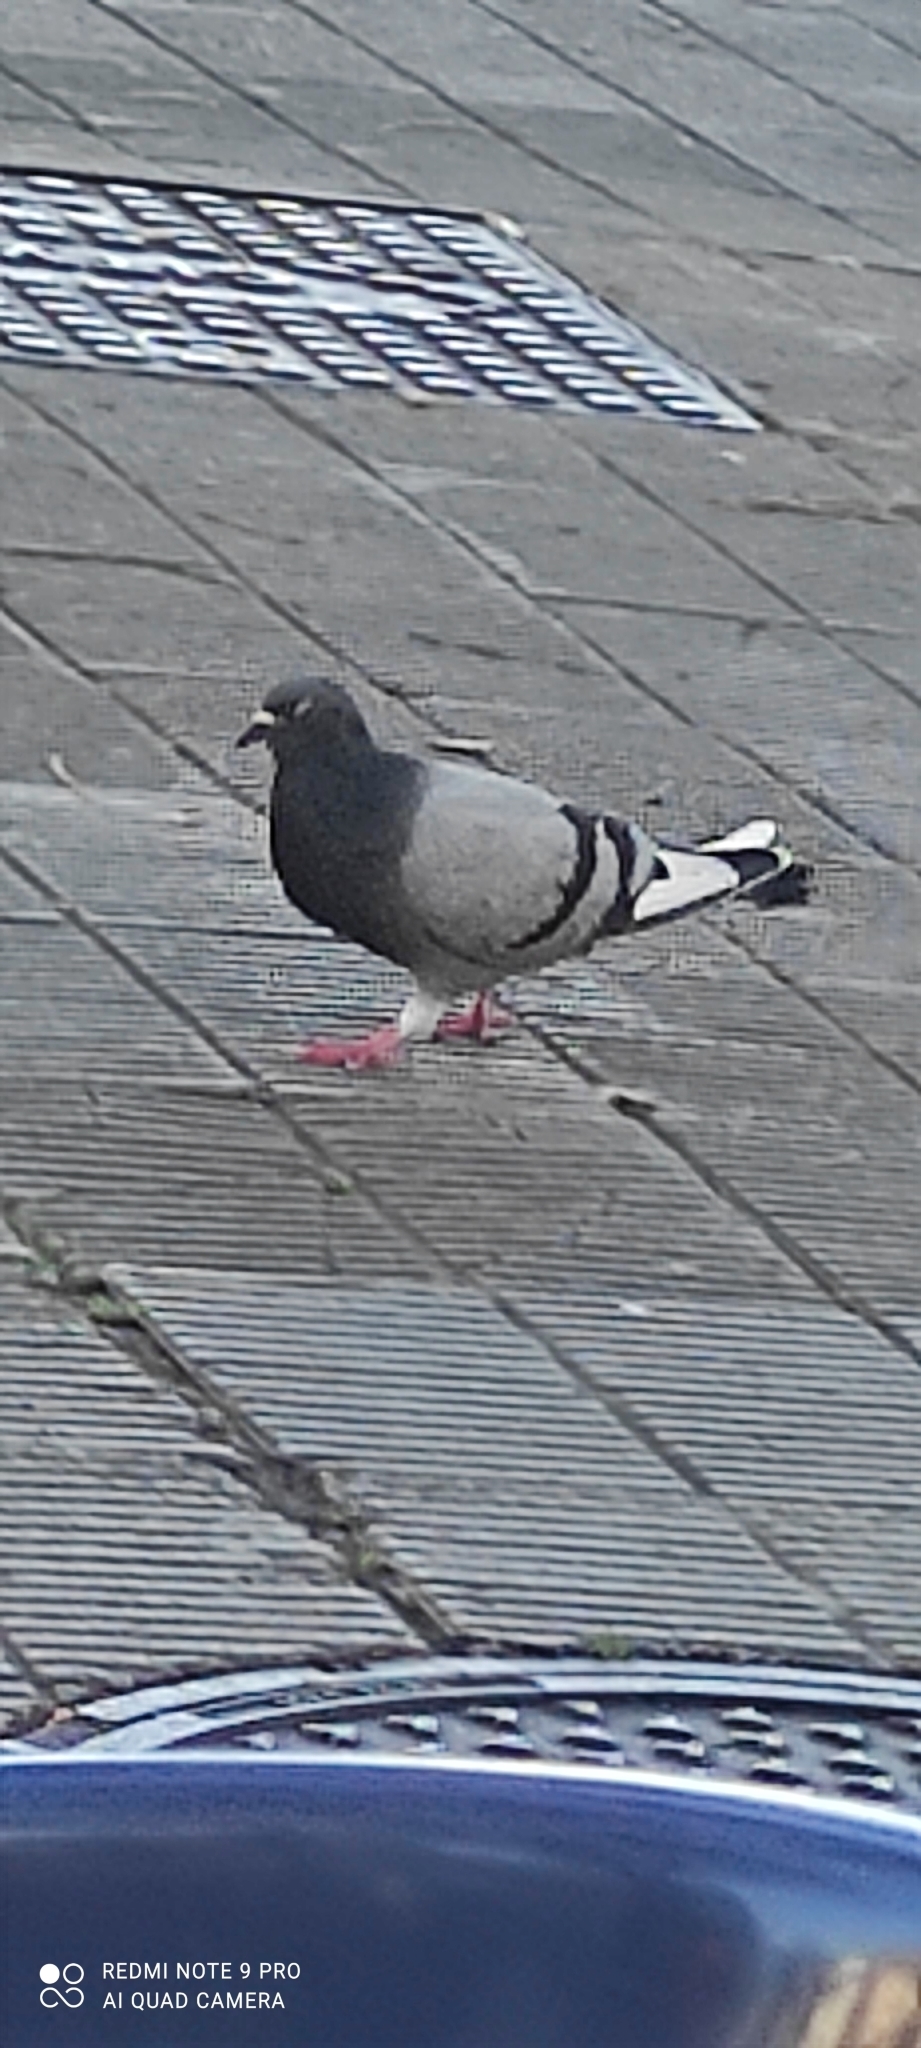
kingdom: Animalia
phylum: Chordata
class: Aves
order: Columbiformes
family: Columbidae
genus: Columba
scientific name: Columba livia
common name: Rock pigeon
